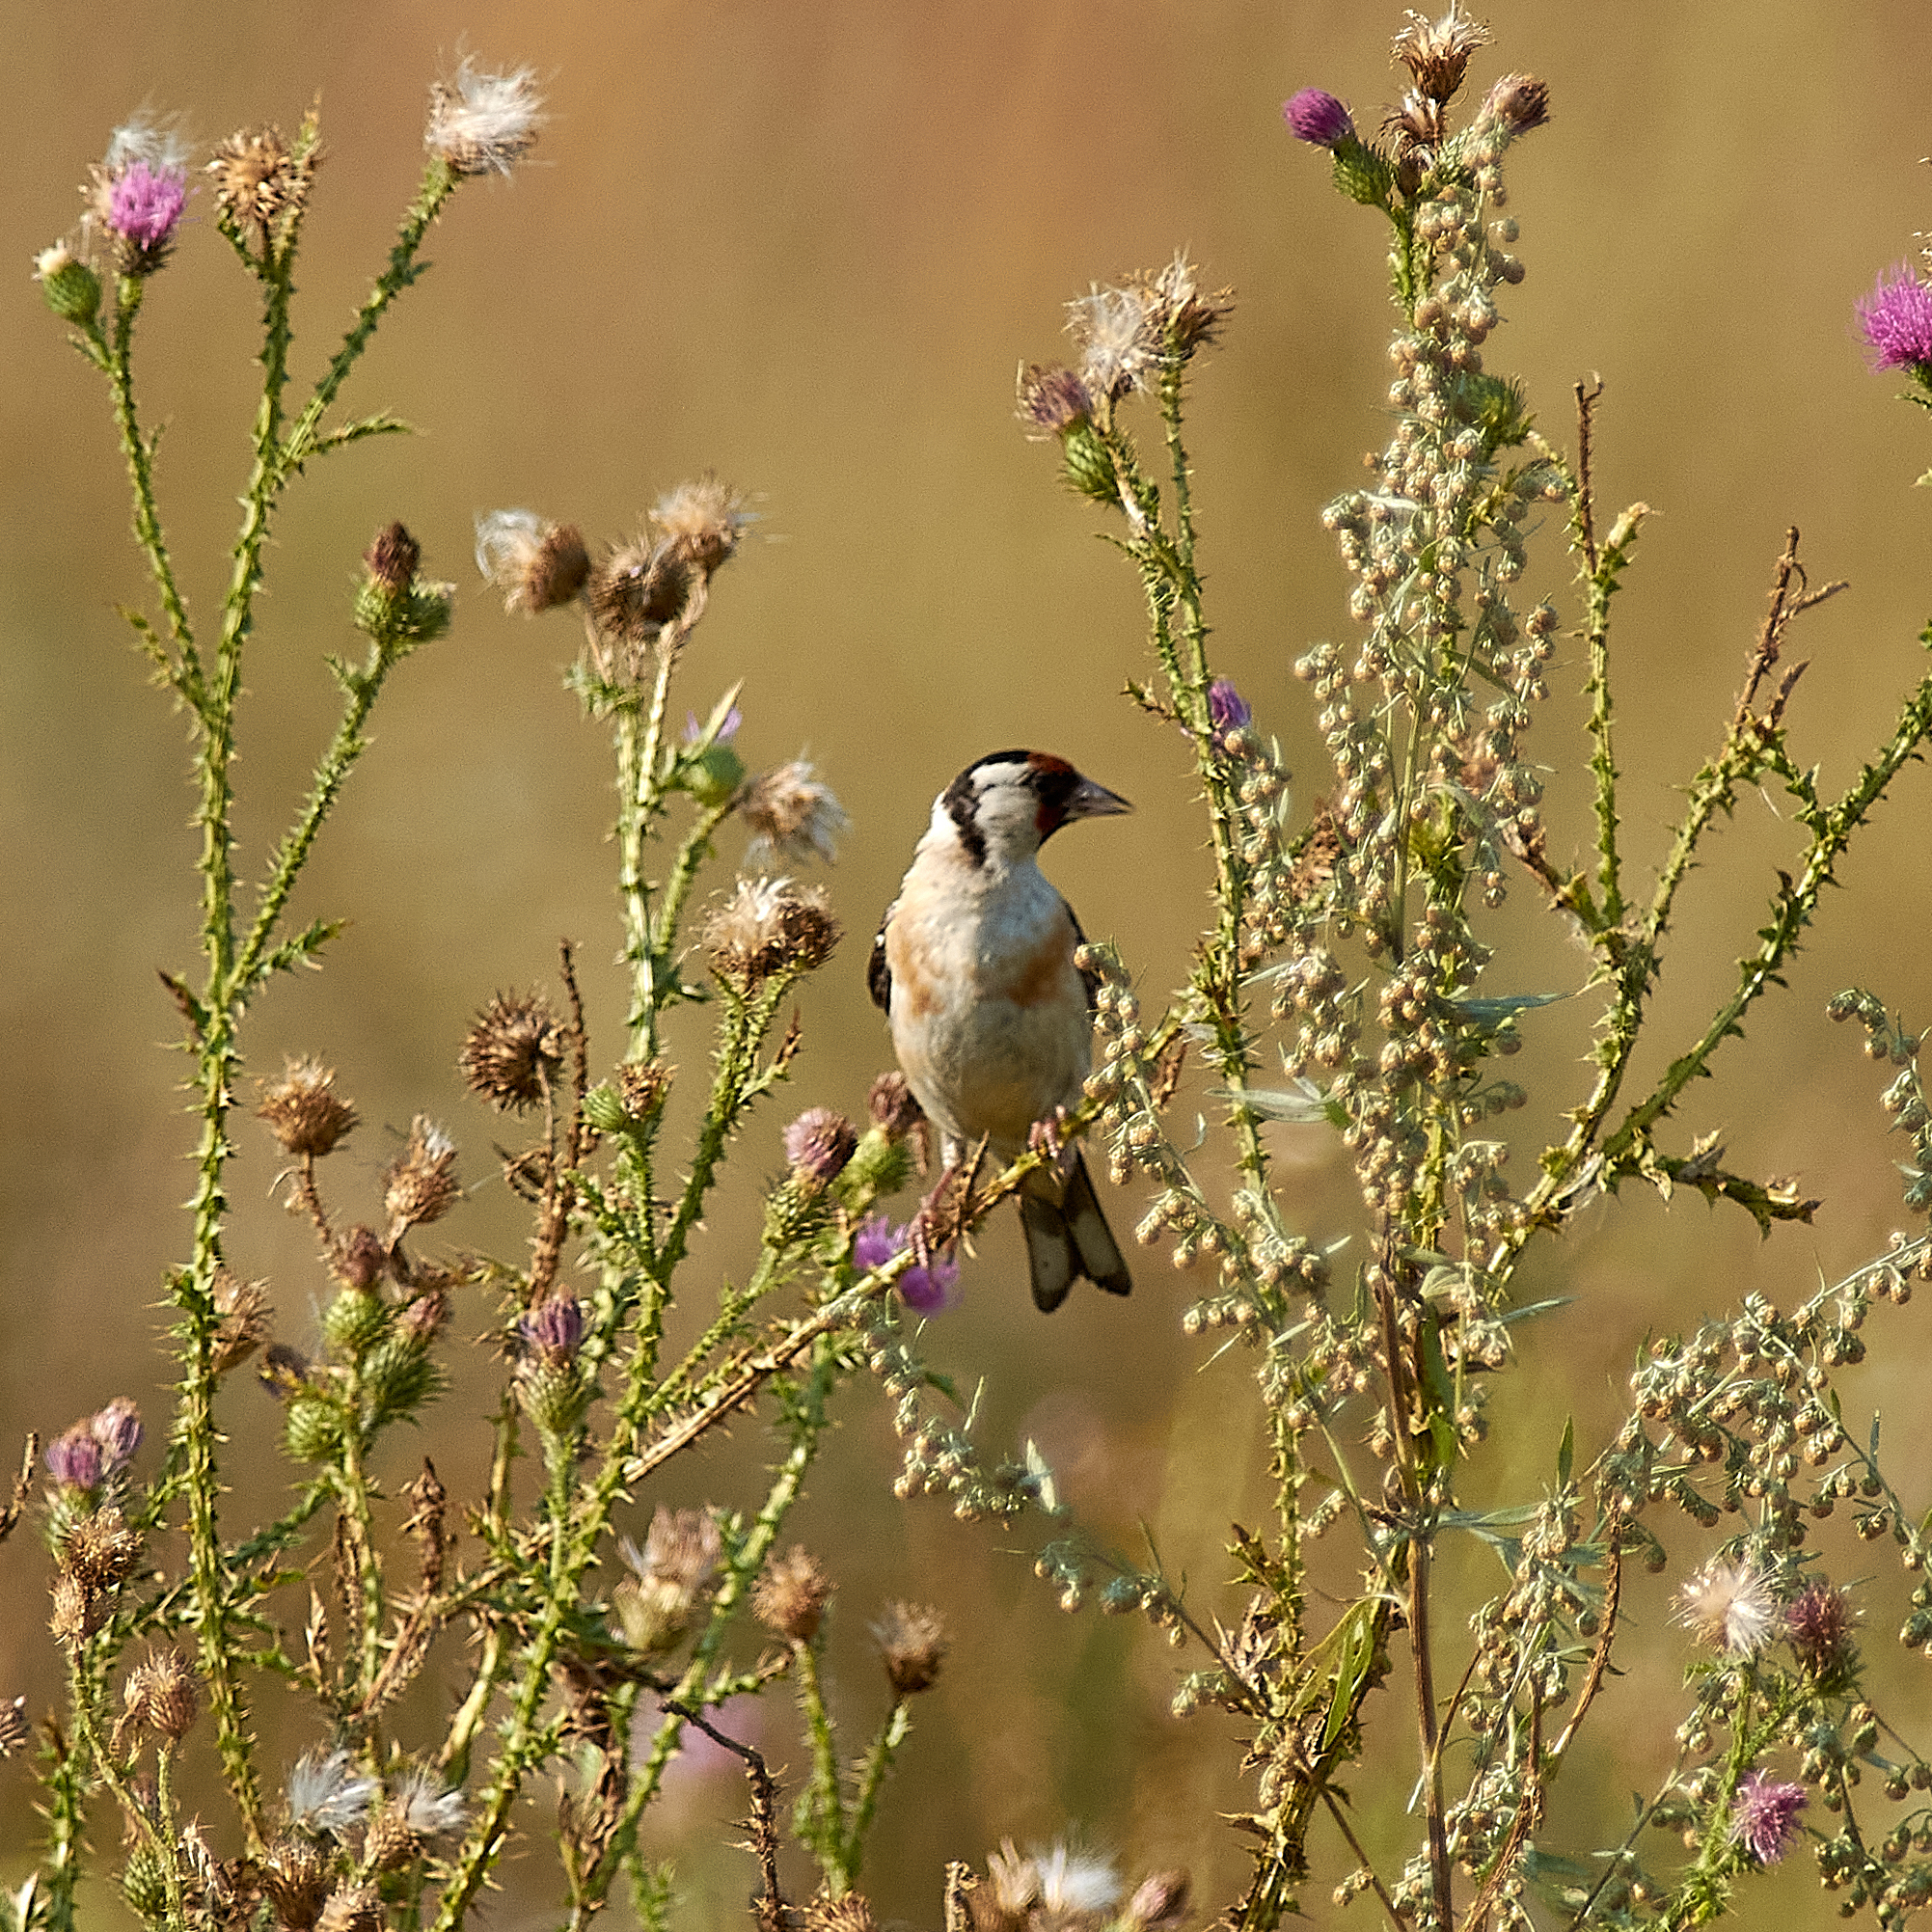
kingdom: Animalia
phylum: Chordata
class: Aves
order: Passeriformes
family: Fringillidae
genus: Carduelis
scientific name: Carduelis carduelis
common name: European goldfinch
